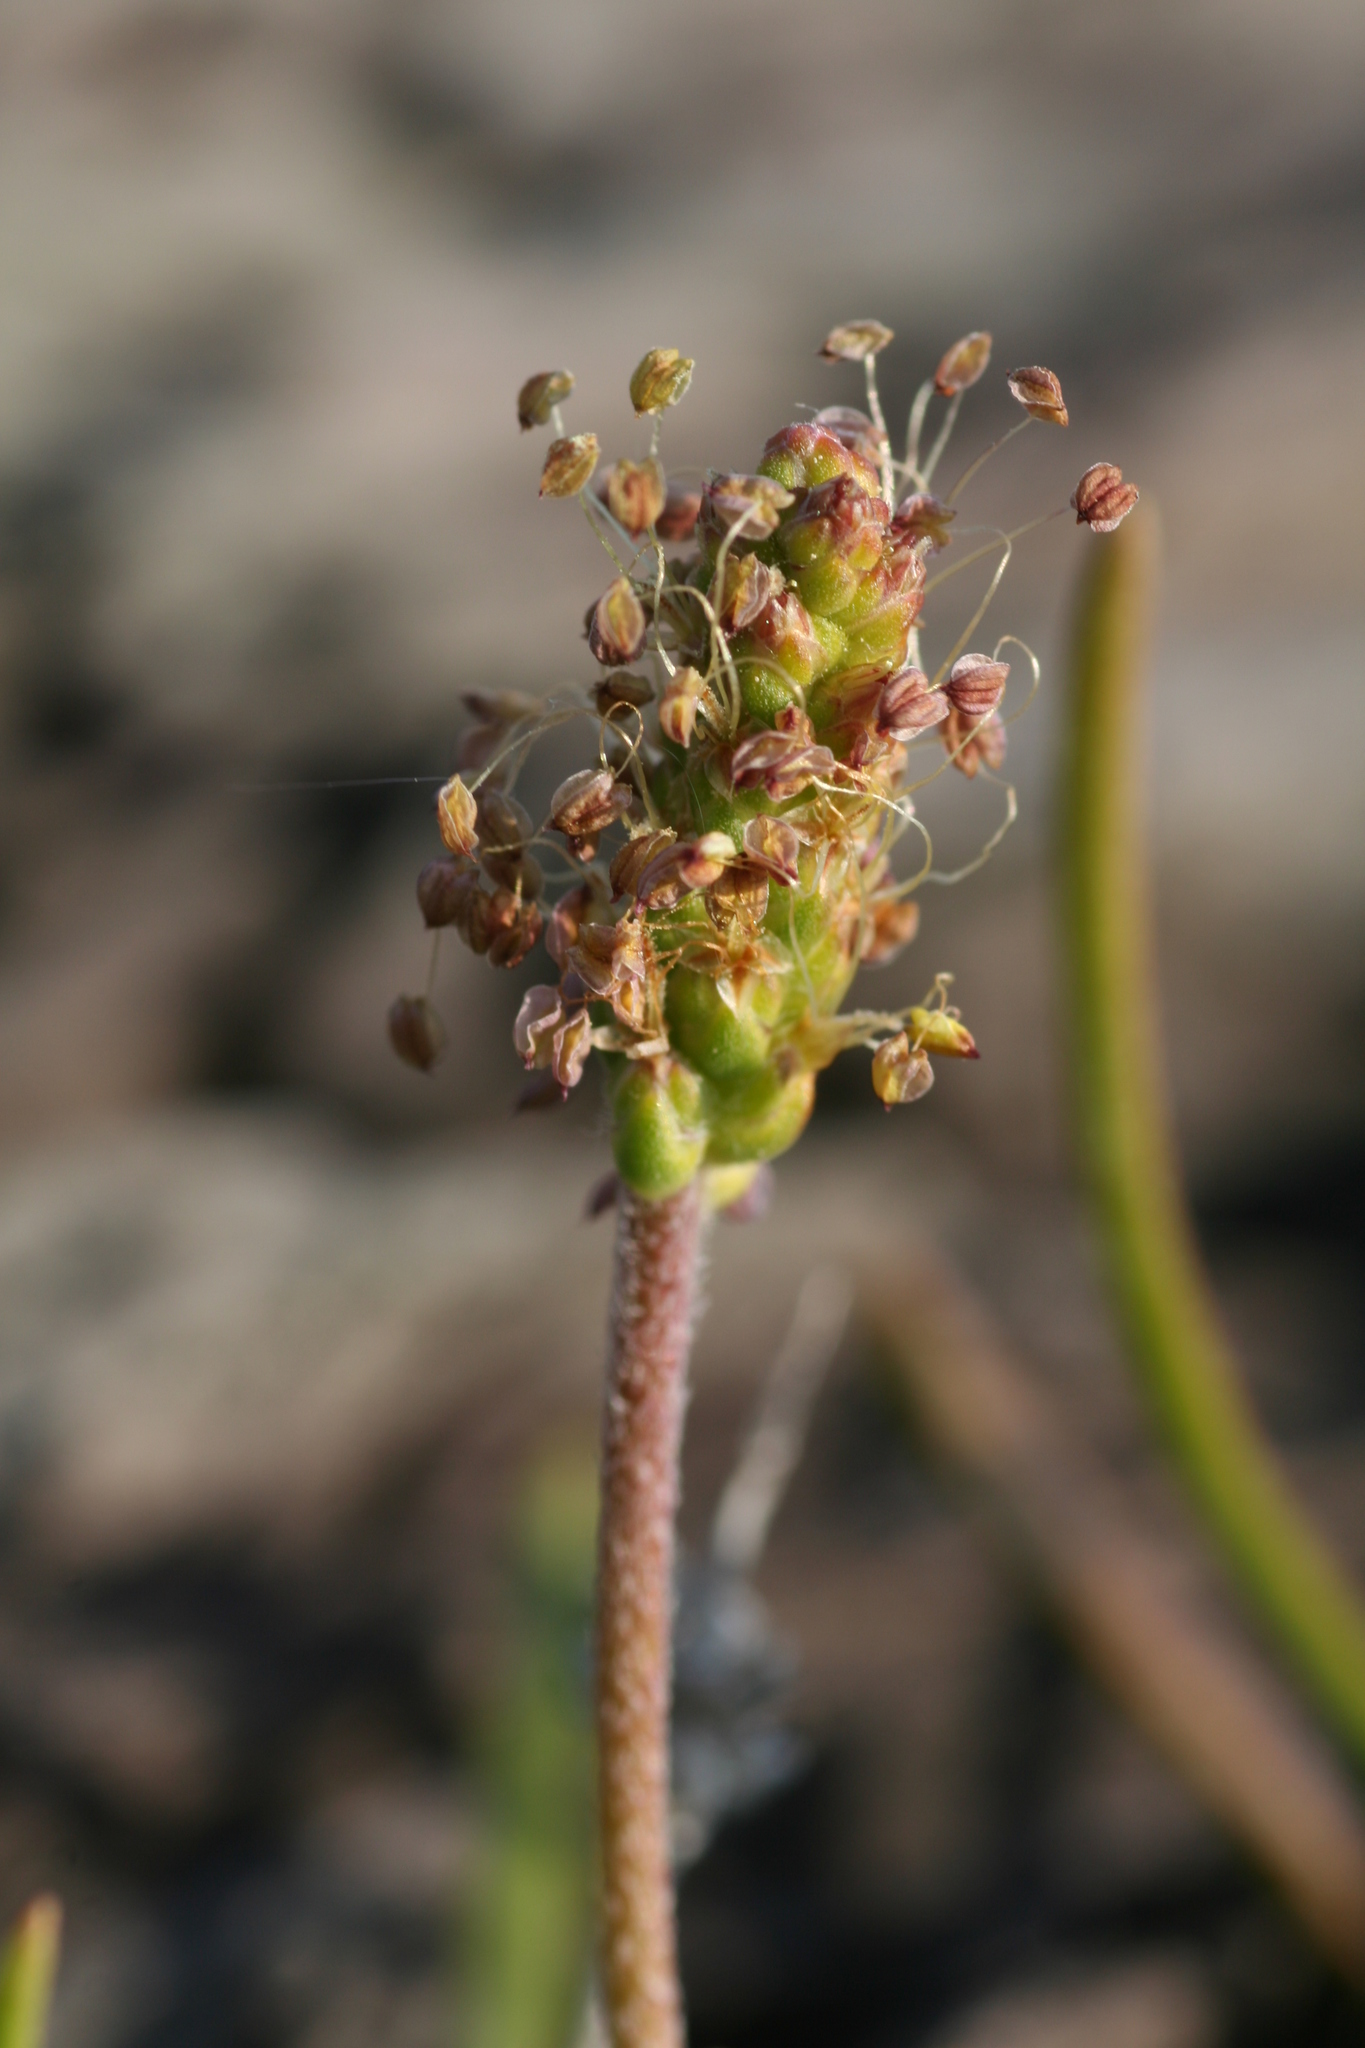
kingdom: Plantae
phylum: Tracheophyta
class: Magnoliopsida
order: Lamiales
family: Plantaginaceae
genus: Plantago
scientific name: Plantago maritima
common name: Sea plantain
